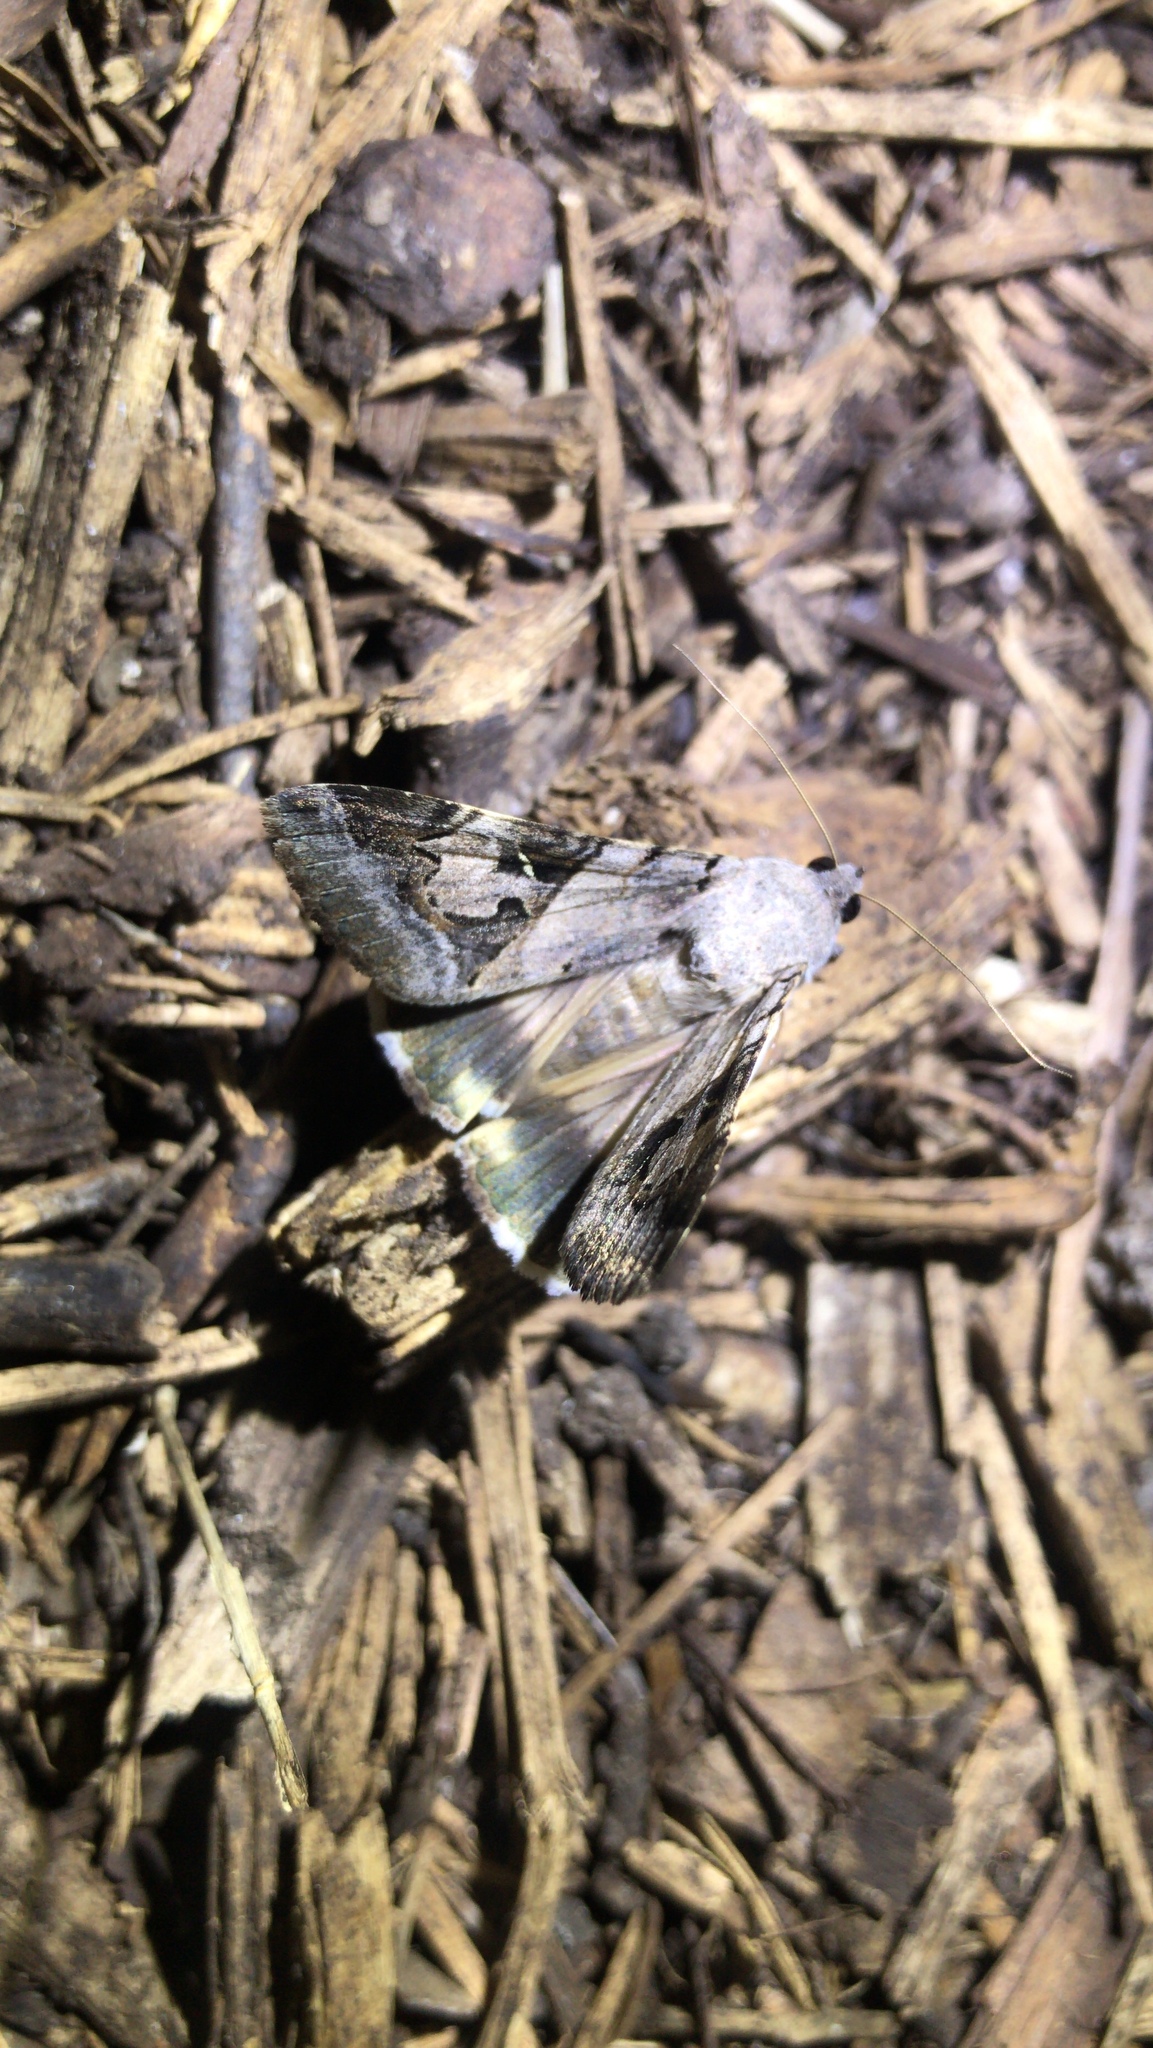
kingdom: Animalia
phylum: Arthropoda
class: Insecta
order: Lepidoptera
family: Erebidae
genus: Melipotis
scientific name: Melipotis indomita
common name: Moth
